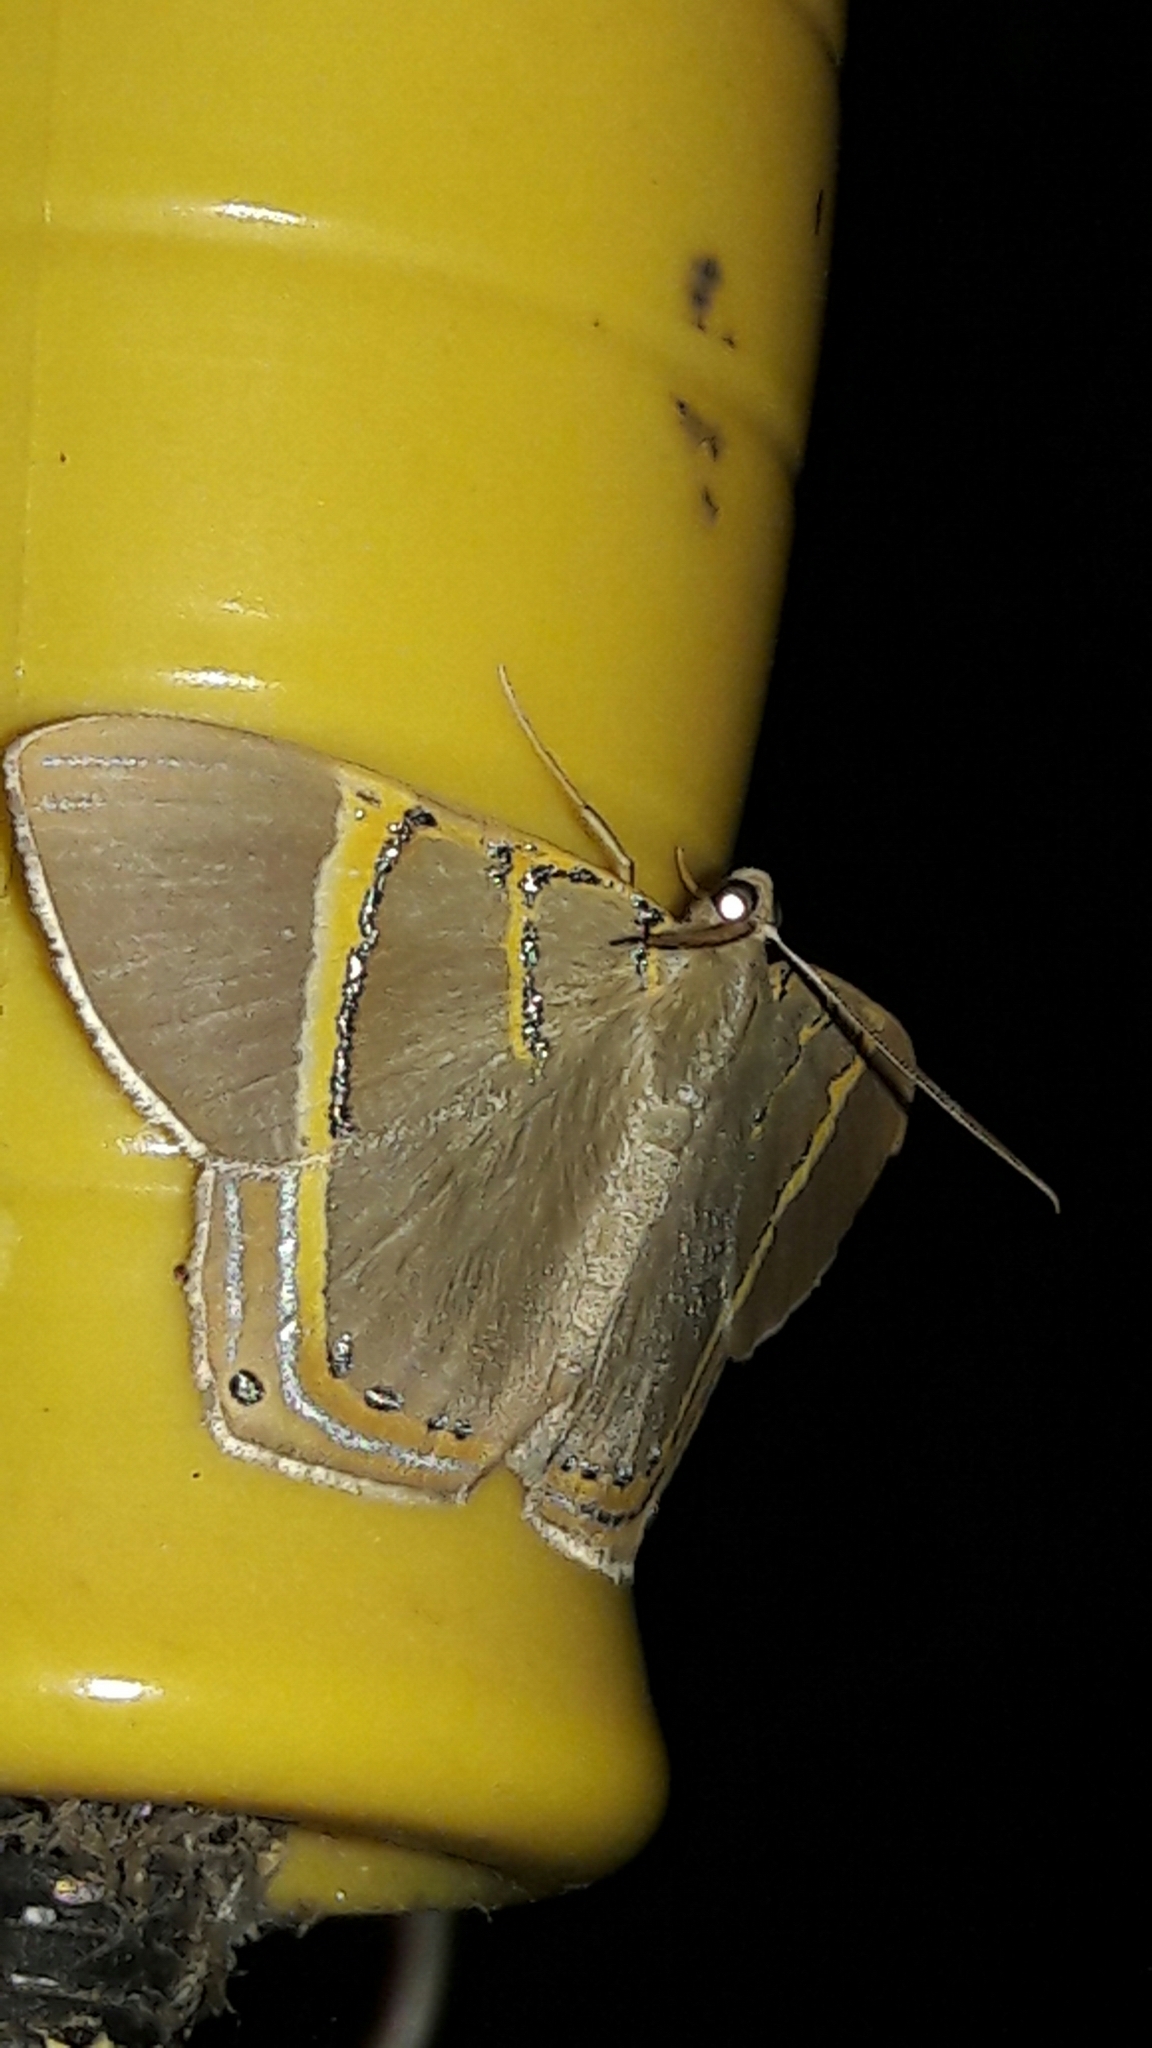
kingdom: Animalia
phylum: Arthropoda
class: Insecta
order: Lepidoptera
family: Geometridae
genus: Phrygionis
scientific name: Phrygionis paradoxata
